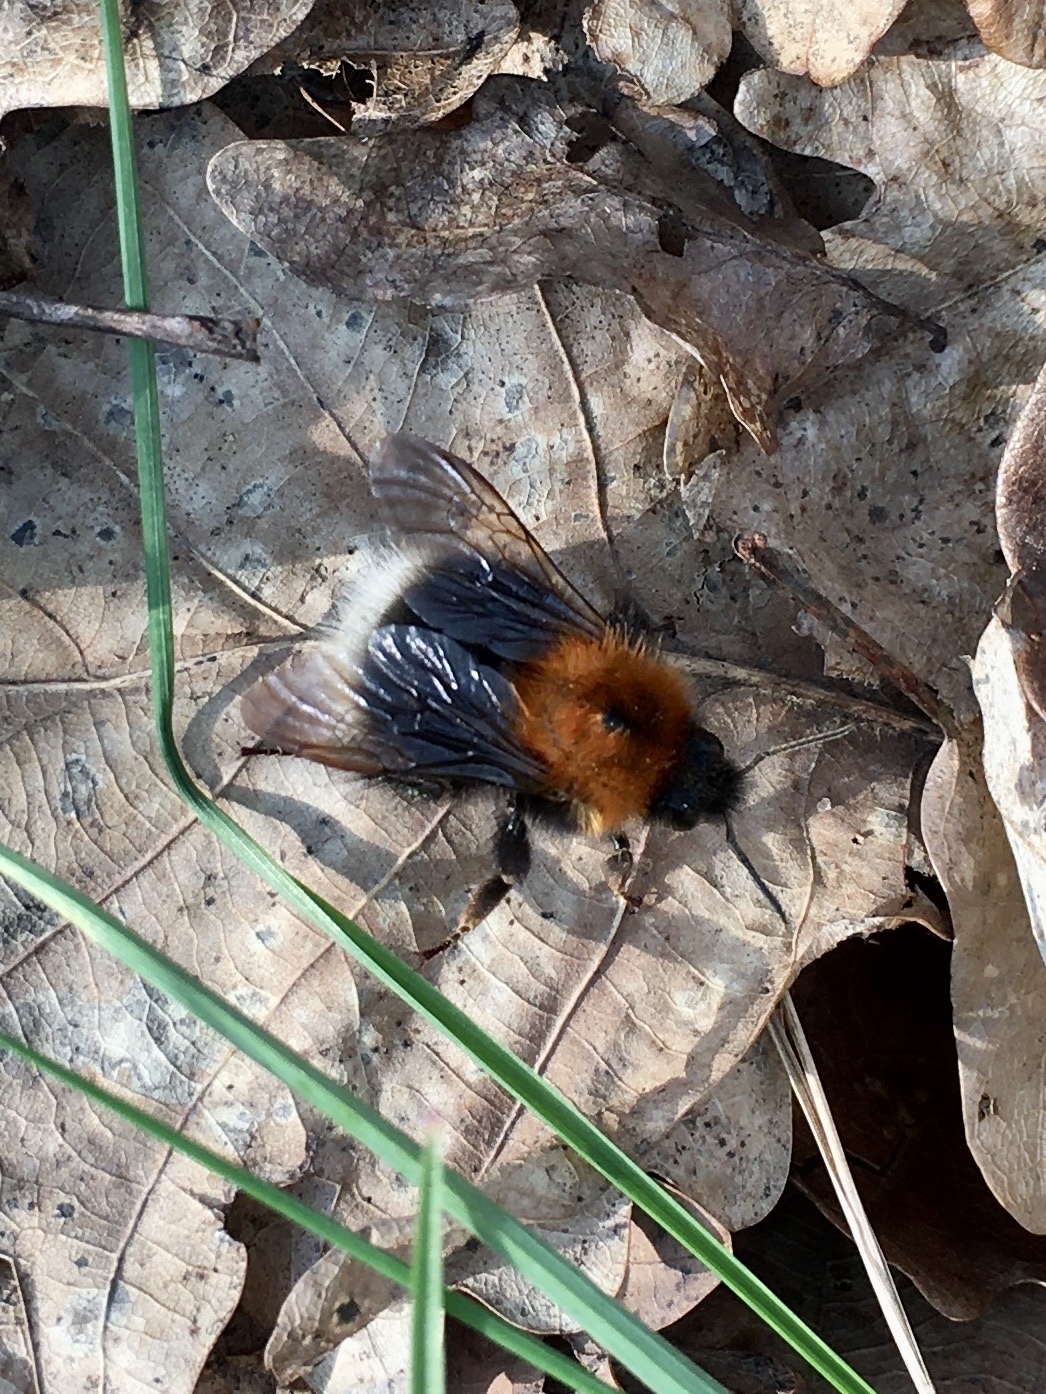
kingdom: Animalia
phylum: Arthropoda
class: Insecta
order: Hymenoptera
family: Apidae
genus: Bombus
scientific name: Bombus hypnorum
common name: New garden bumblebee
